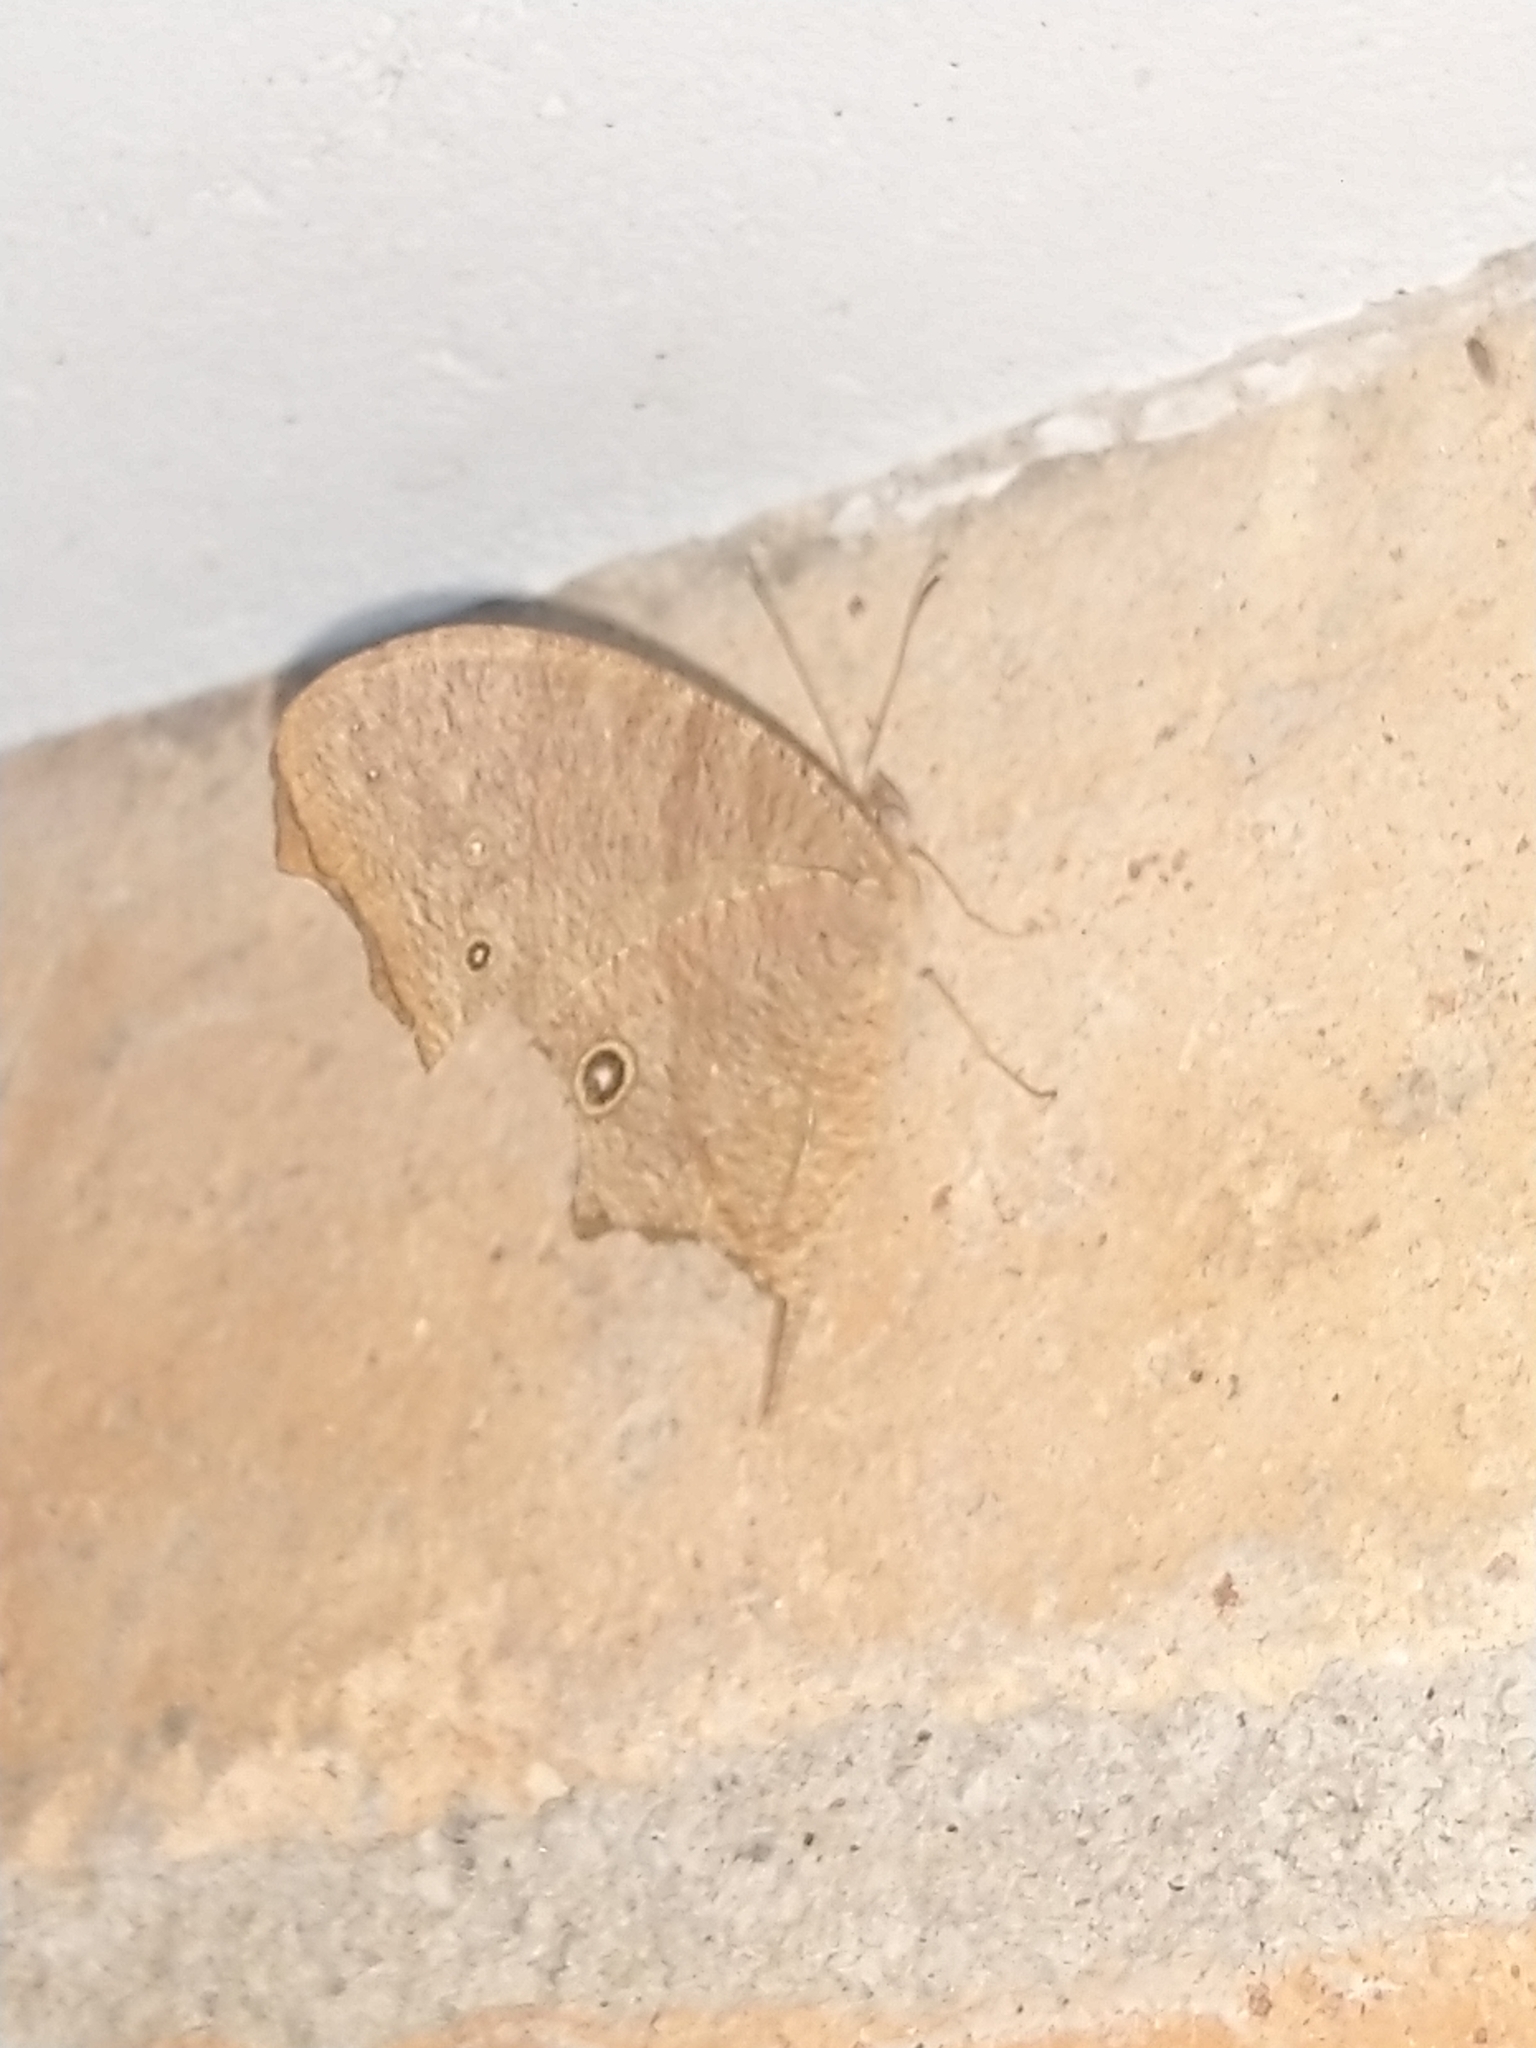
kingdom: Animalia
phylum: Arthropoda
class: Insecta
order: Lepidoptera
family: Nymphalidae
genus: Melanitis
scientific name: Melanitis leda
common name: Twilight brown
